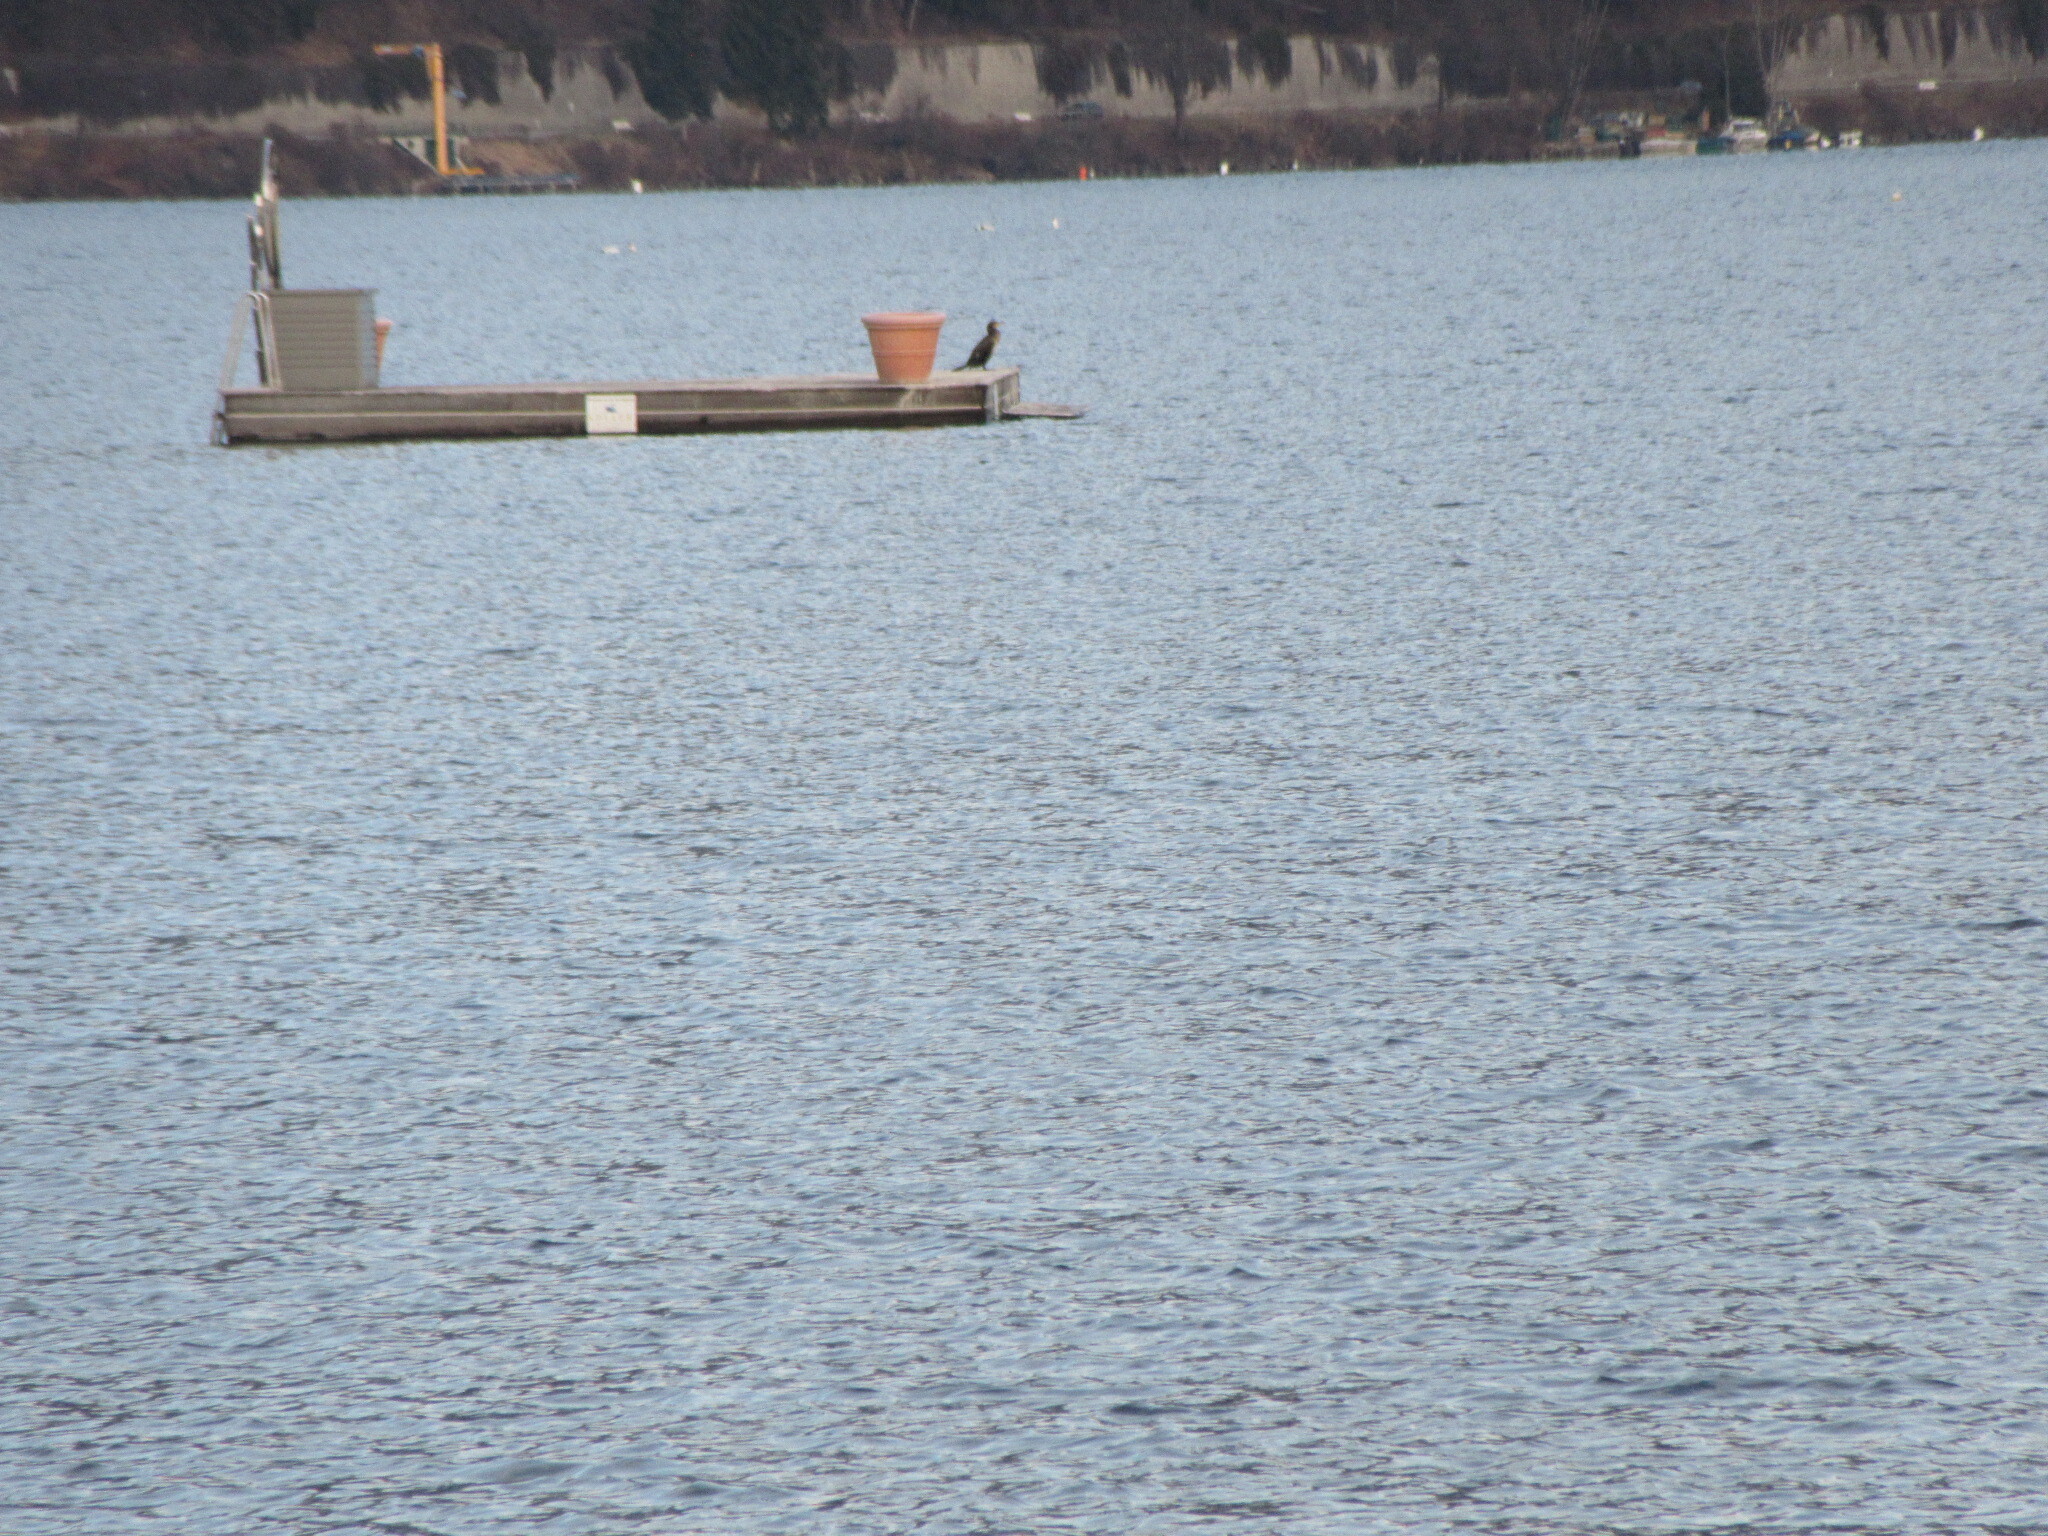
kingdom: Animalia
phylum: Chordata
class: Aves
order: Suliformes
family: Phalacrocoracidae
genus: Phalacrocorax
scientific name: Phalacrocorax carbo
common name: Great cormorant
